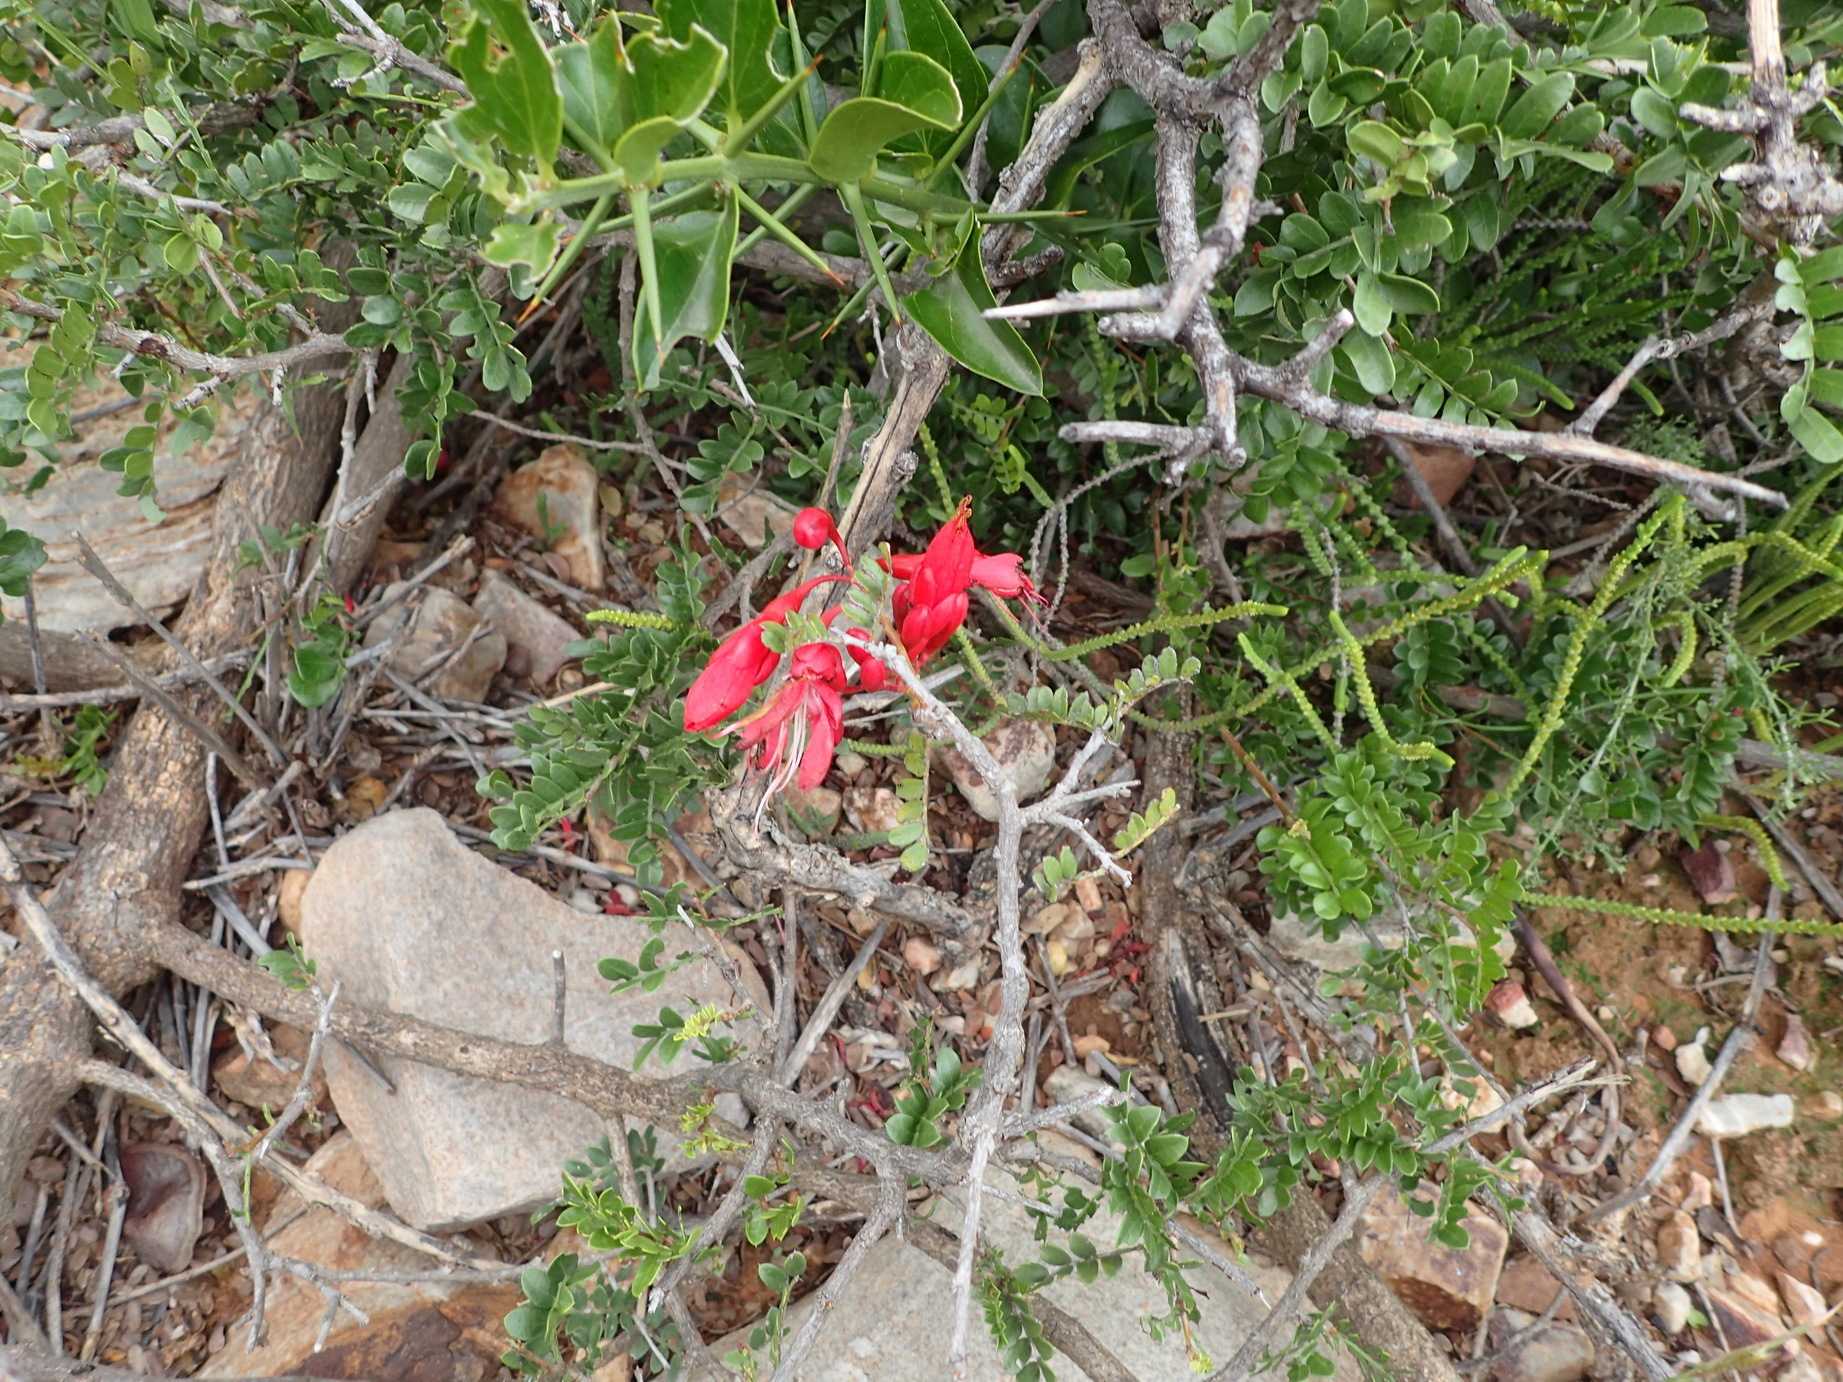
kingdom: Plantae
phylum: Tracheophyta
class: Magnoliopsida
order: Fabales
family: Fabaceae
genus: Schotia
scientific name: Schotia afra
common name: Hottentot's bean
